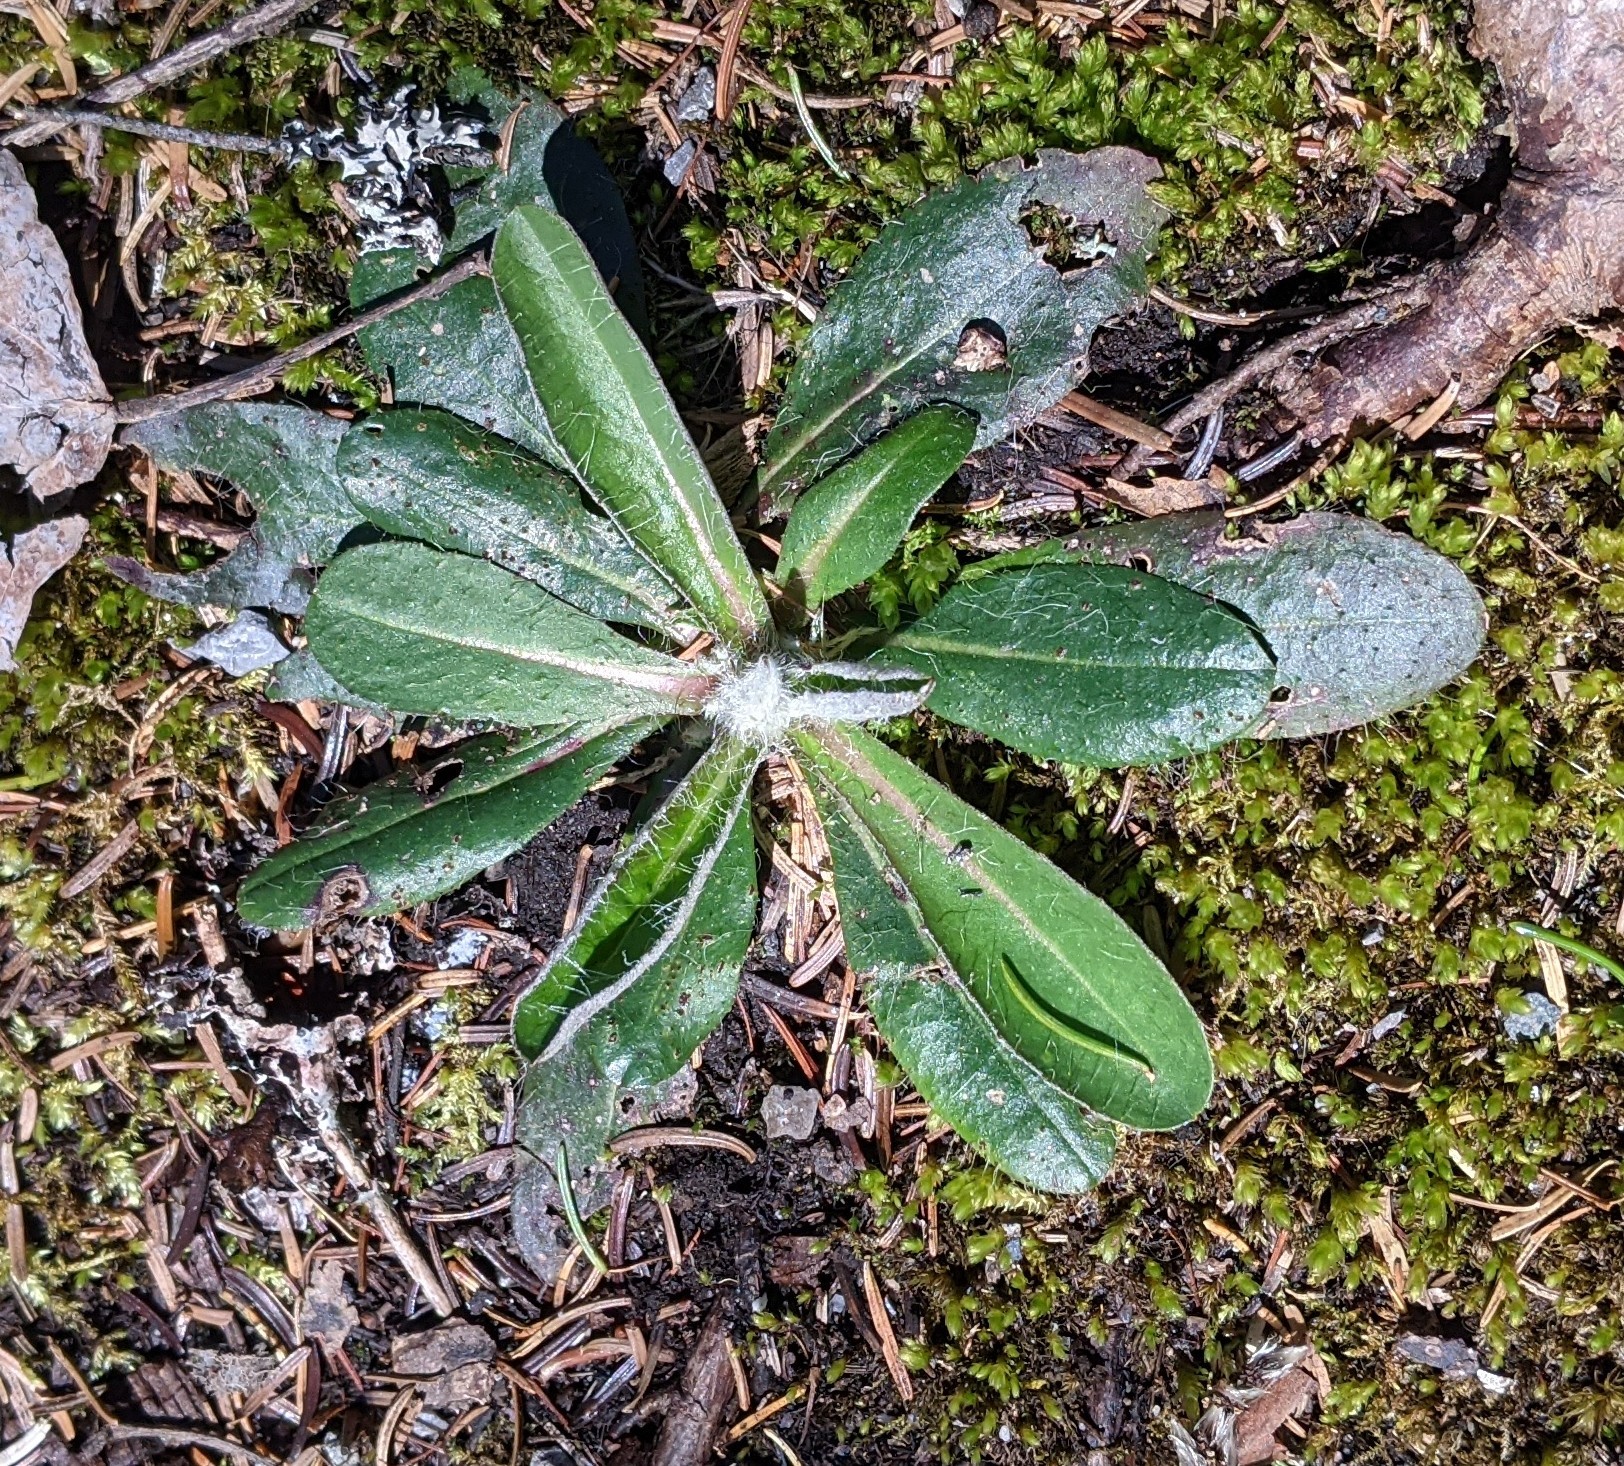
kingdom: Plantae
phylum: Tracheophyta
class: Magnoliopsida
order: Asterales
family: Asteraceae
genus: Pilosella
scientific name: Pilosella officinarum
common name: Mouse-ear hawkweed
